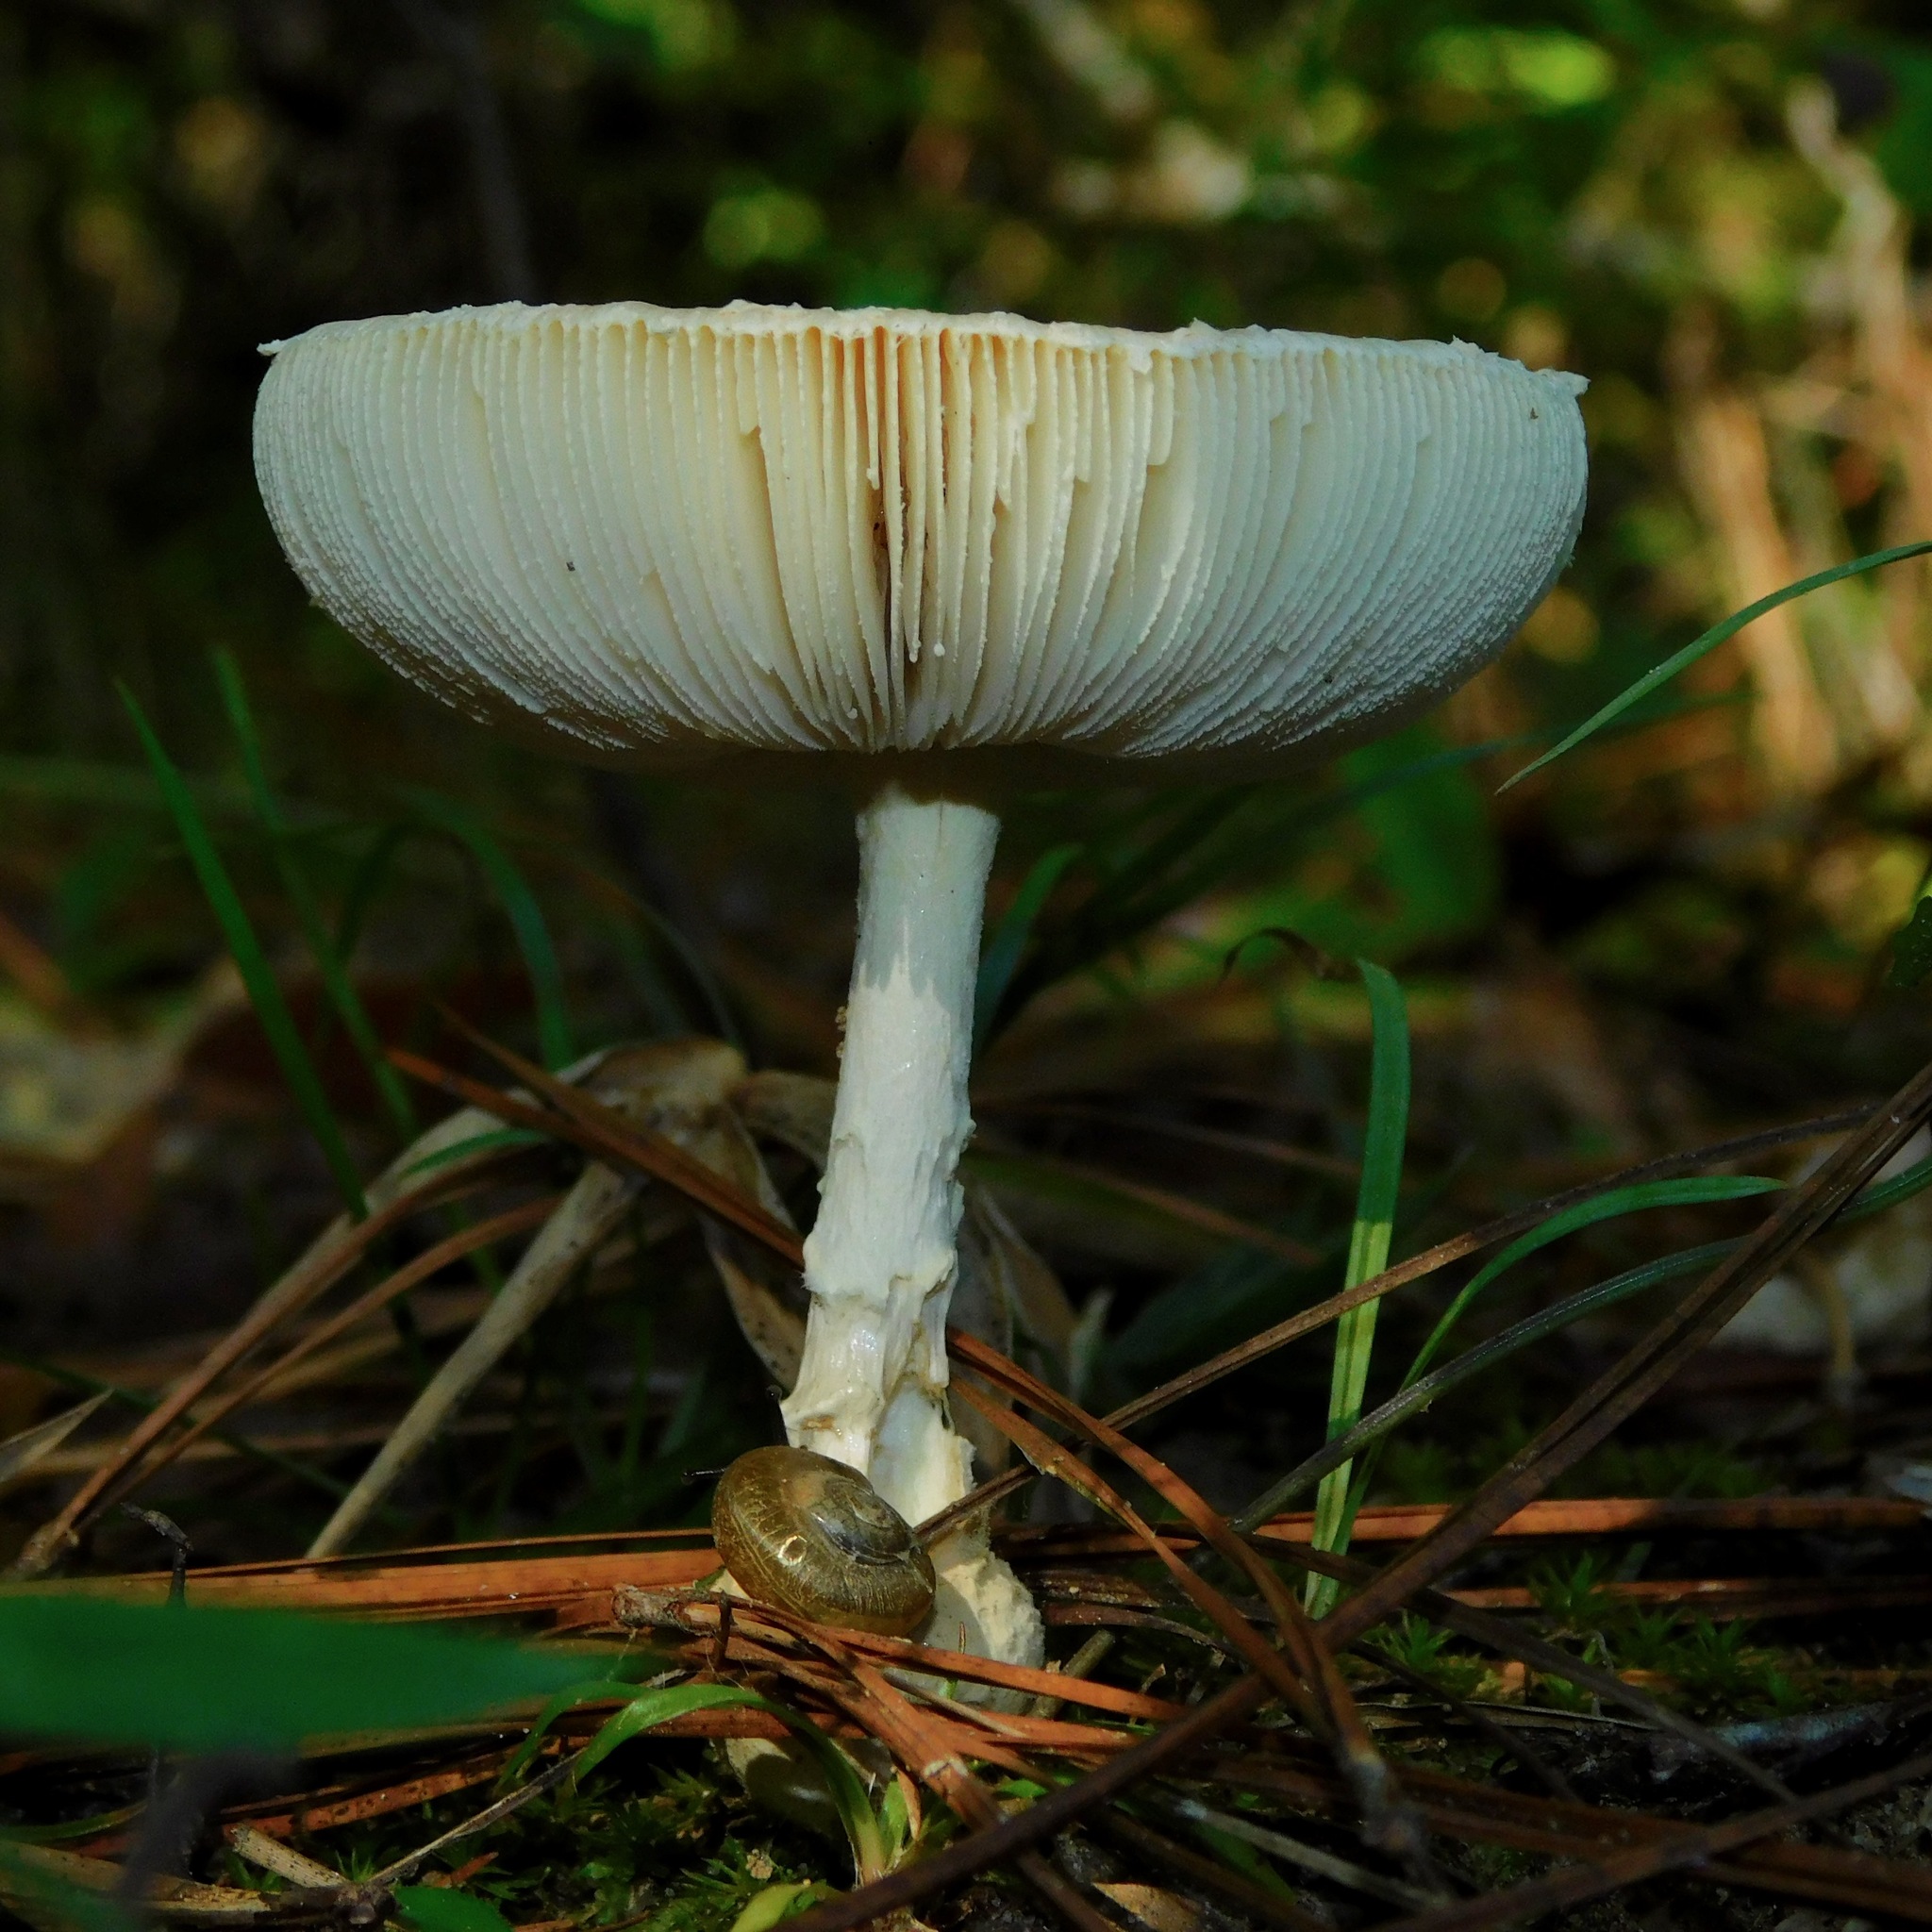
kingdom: Fungi
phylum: Basidiomycota
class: Agaricomycetes
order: Agaricales
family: Amanitaceae
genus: Amanita
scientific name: Amanita persicina
